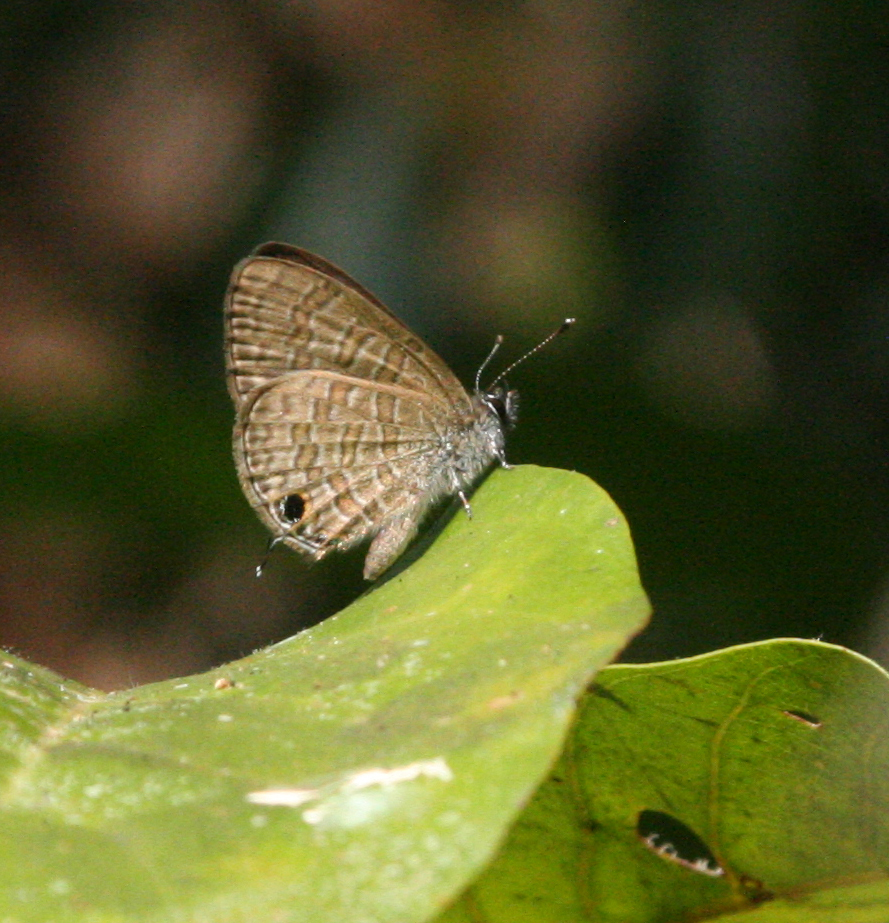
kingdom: Animalia
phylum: Arthropoda
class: Insecta
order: Lepidoptera
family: Lycaenidae
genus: Prosotas
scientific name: Prosotas nora
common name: Common line blue
